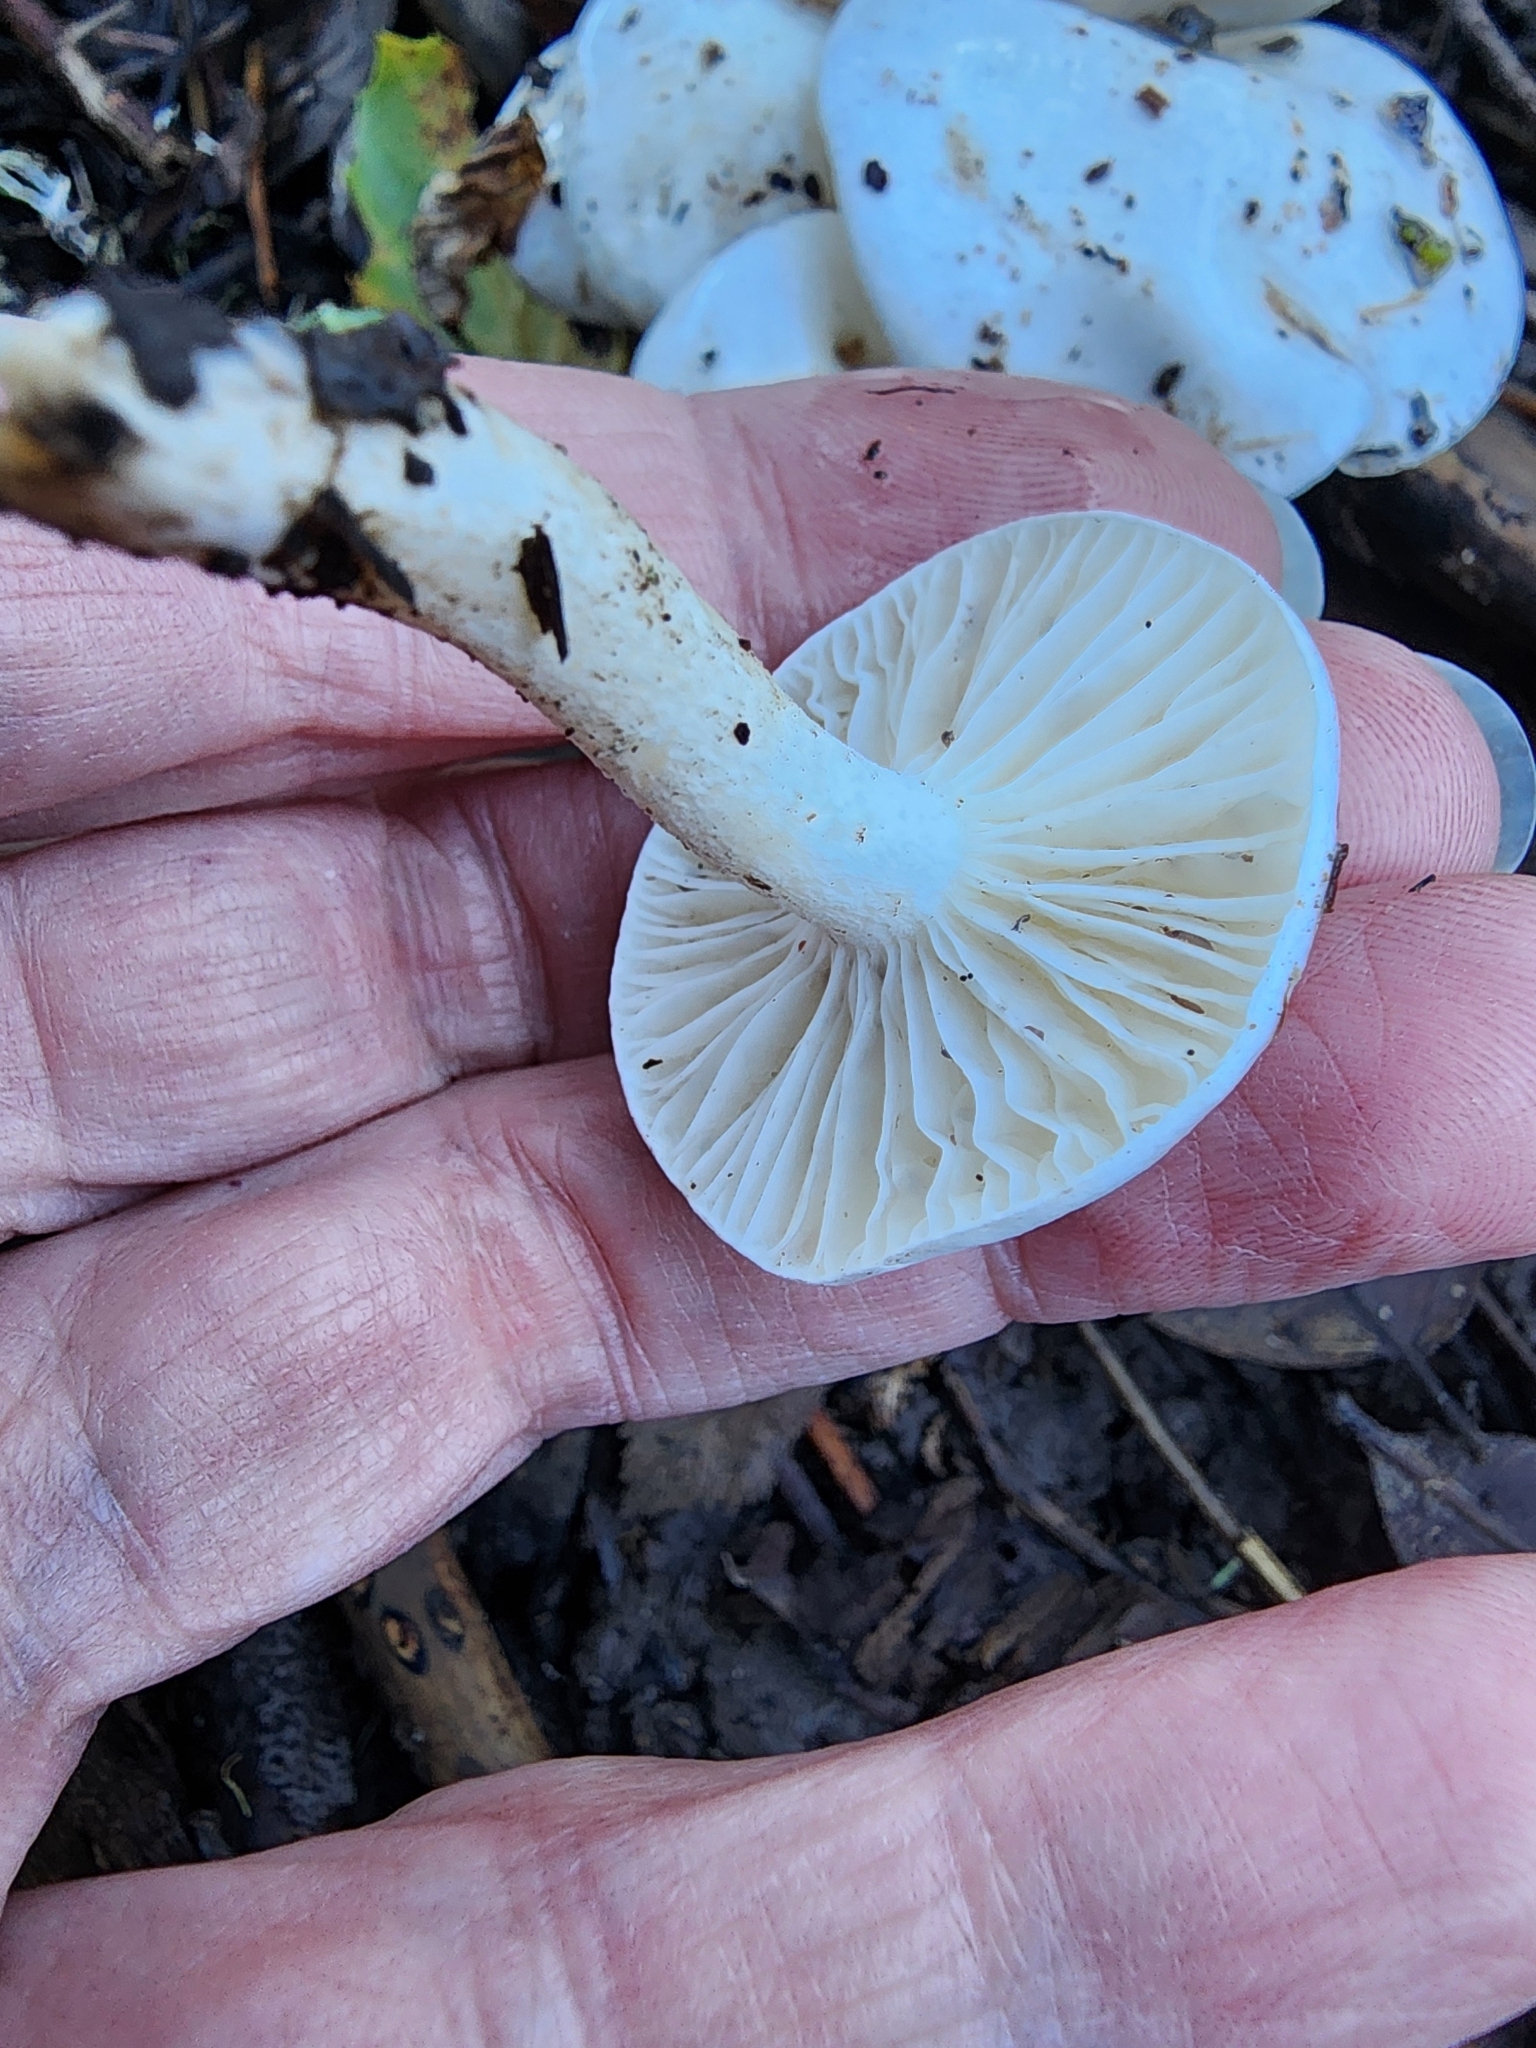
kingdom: Fungi
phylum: Basidiomycota
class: Agaricomycetes
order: Agaricales
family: Hygrophoraceae
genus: Hygrophorus
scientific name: Hygrophorus eburneus
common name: Ivory wax-cap
